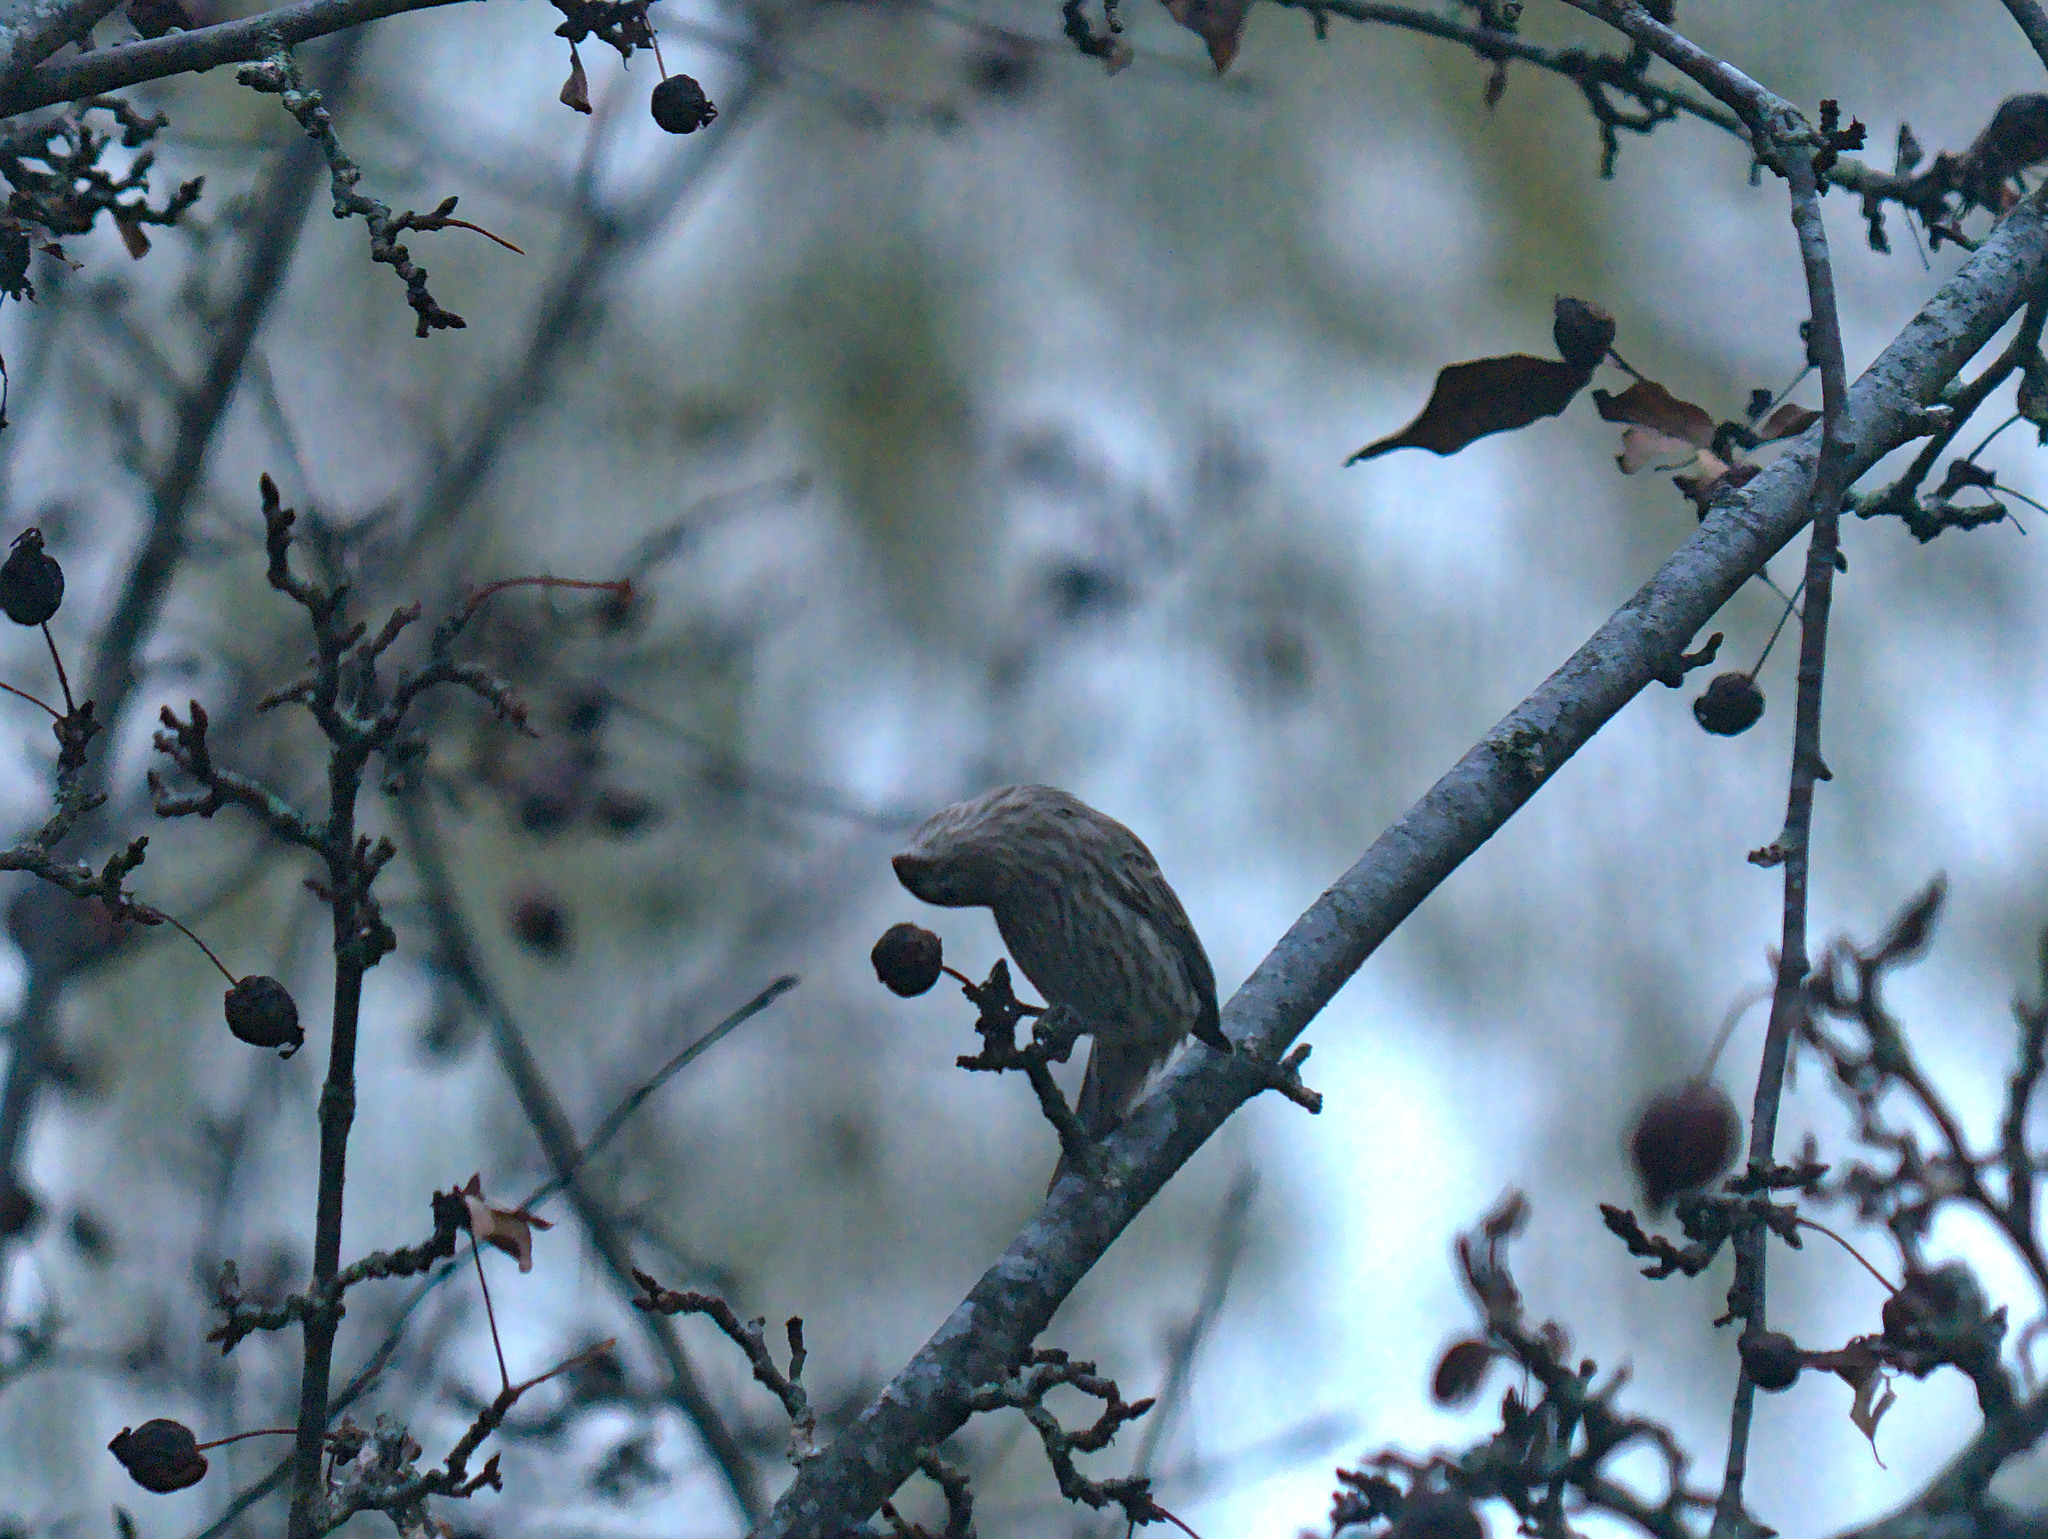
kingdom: Animalia
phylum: Chordata
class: Aves
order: Passeriformes
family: Fringillidae
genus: Haemorhous
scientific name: Haemorhous mexicanus
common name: House finch
